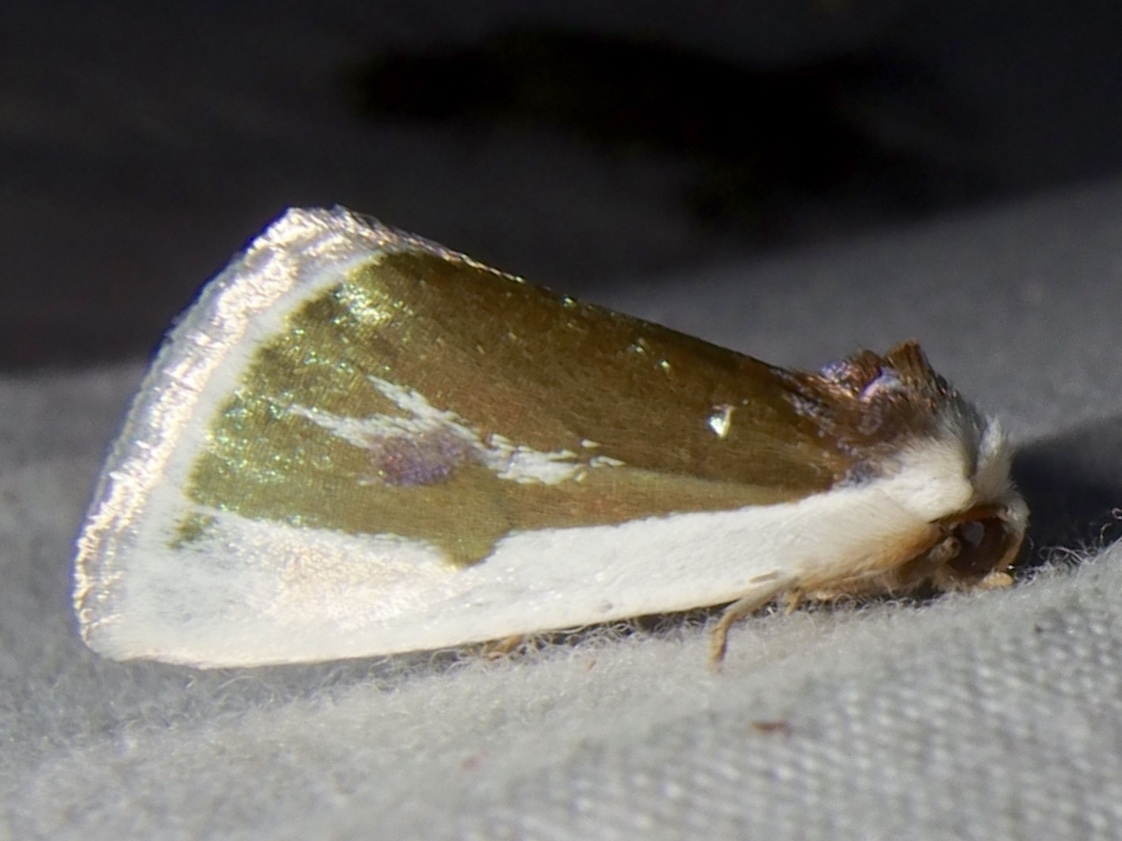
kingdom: Animalia
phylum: Arthropoda
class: Insecta
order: Lepidoptera
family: Noctuidae
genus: Neumoegenia
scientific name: Neumoegenia poetica
